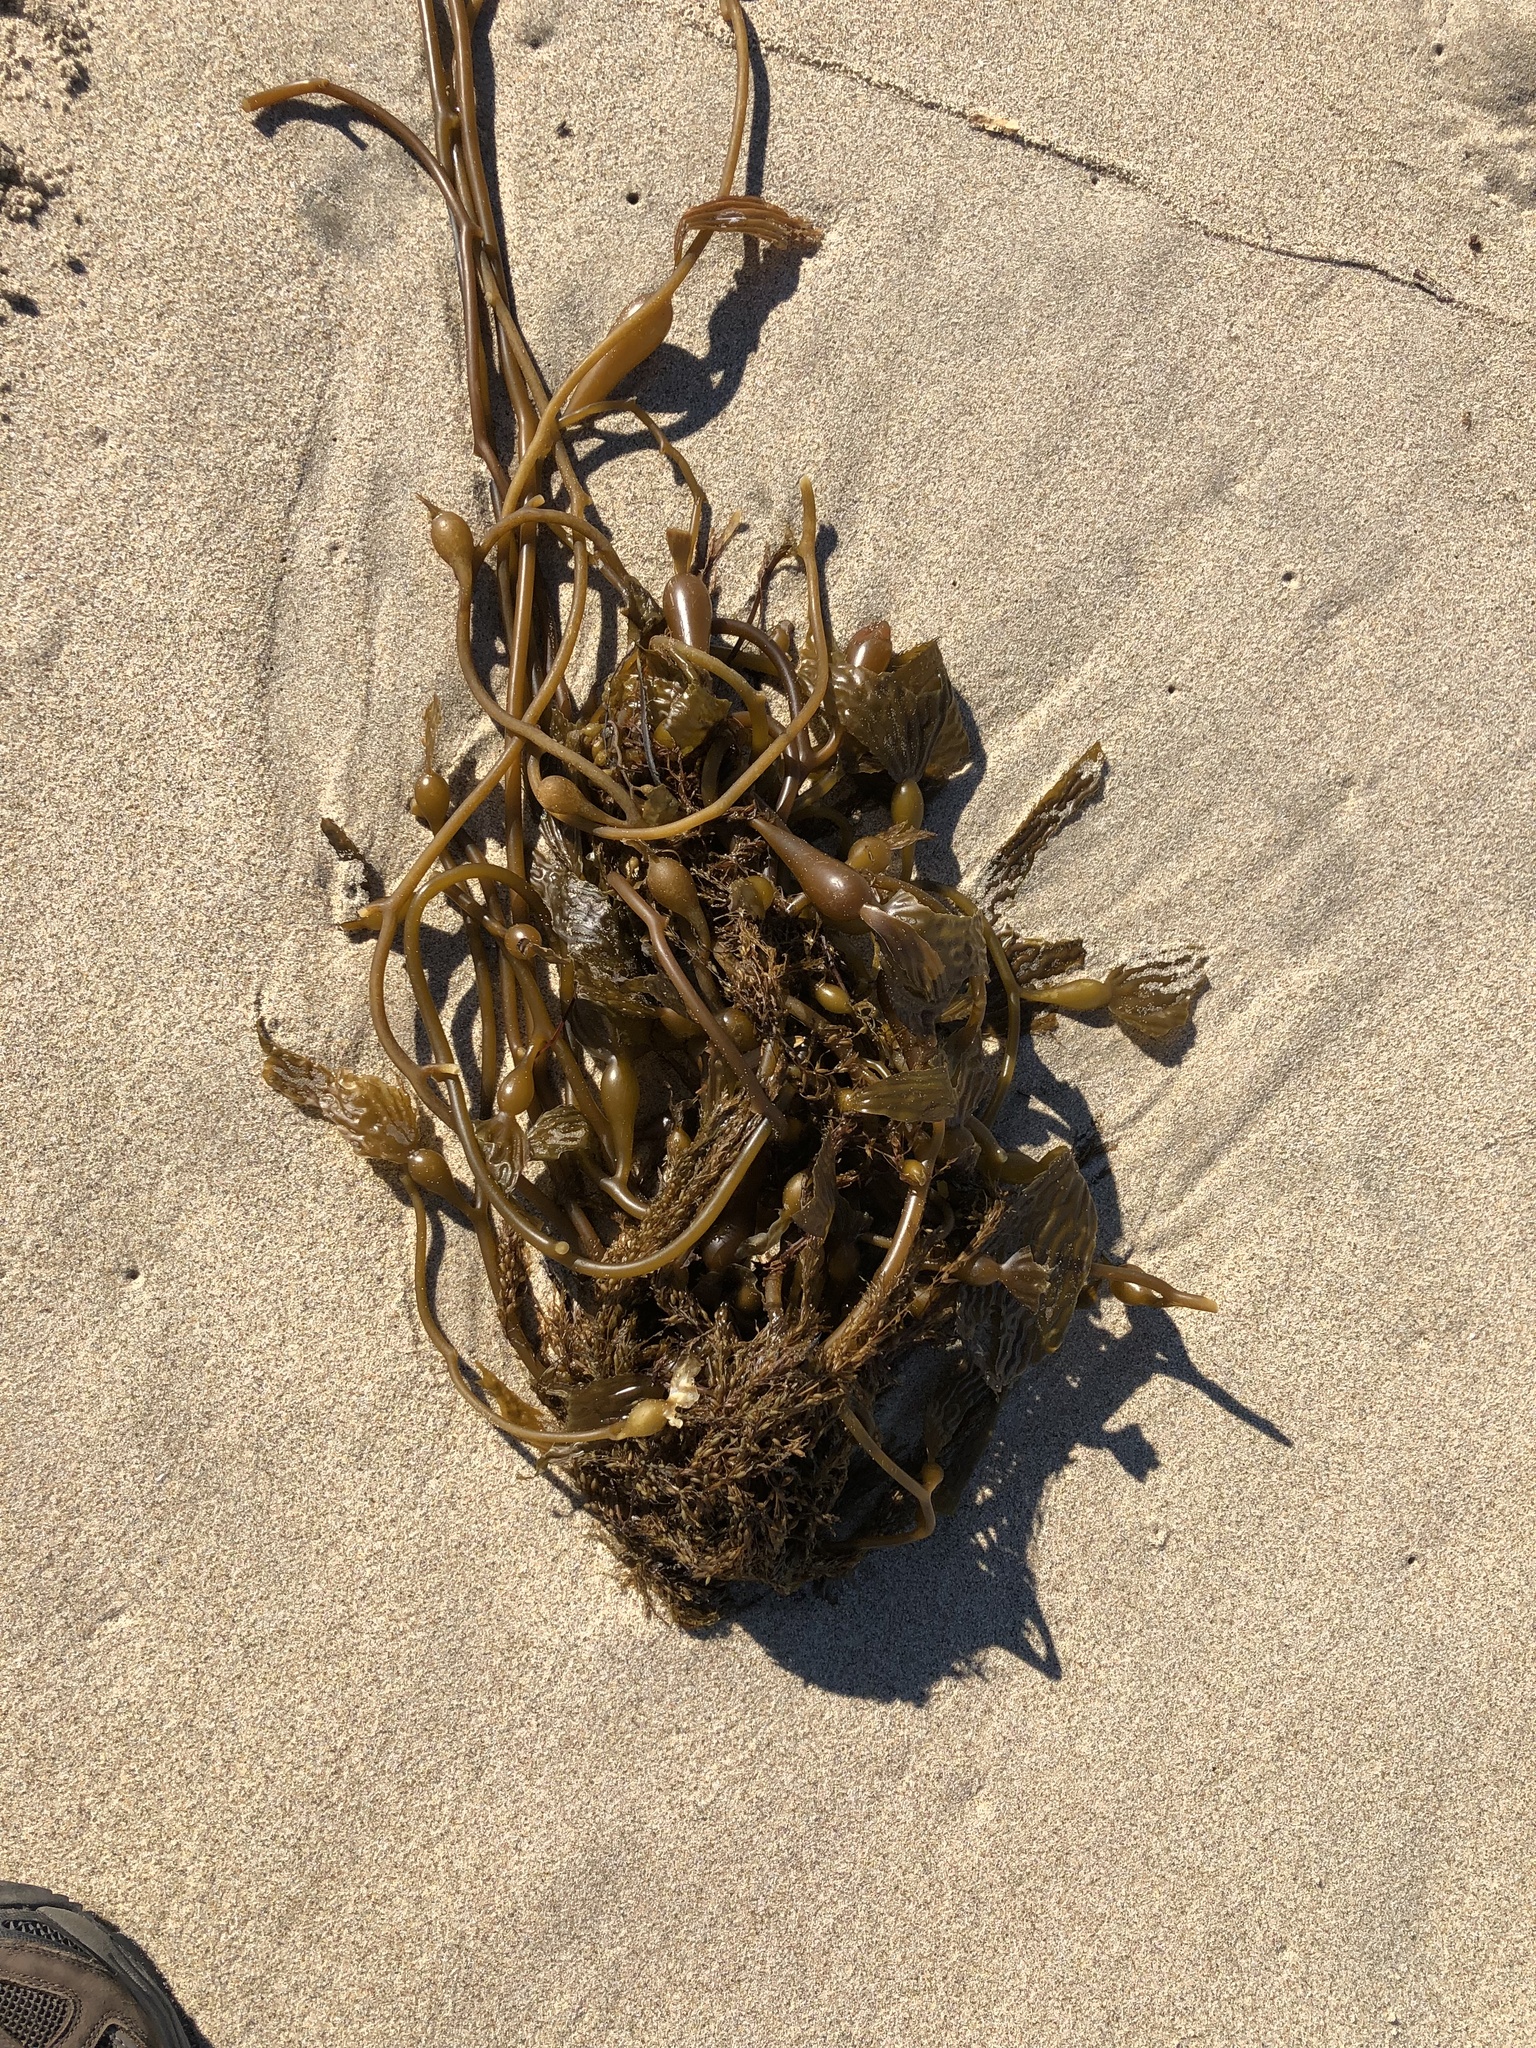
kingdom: Chromista
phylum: Ochrophyta
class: Phaeophyceae
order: Laminariales
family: Laminariaceae
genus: Macrocystis
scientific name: Macrocystis pyrifera
